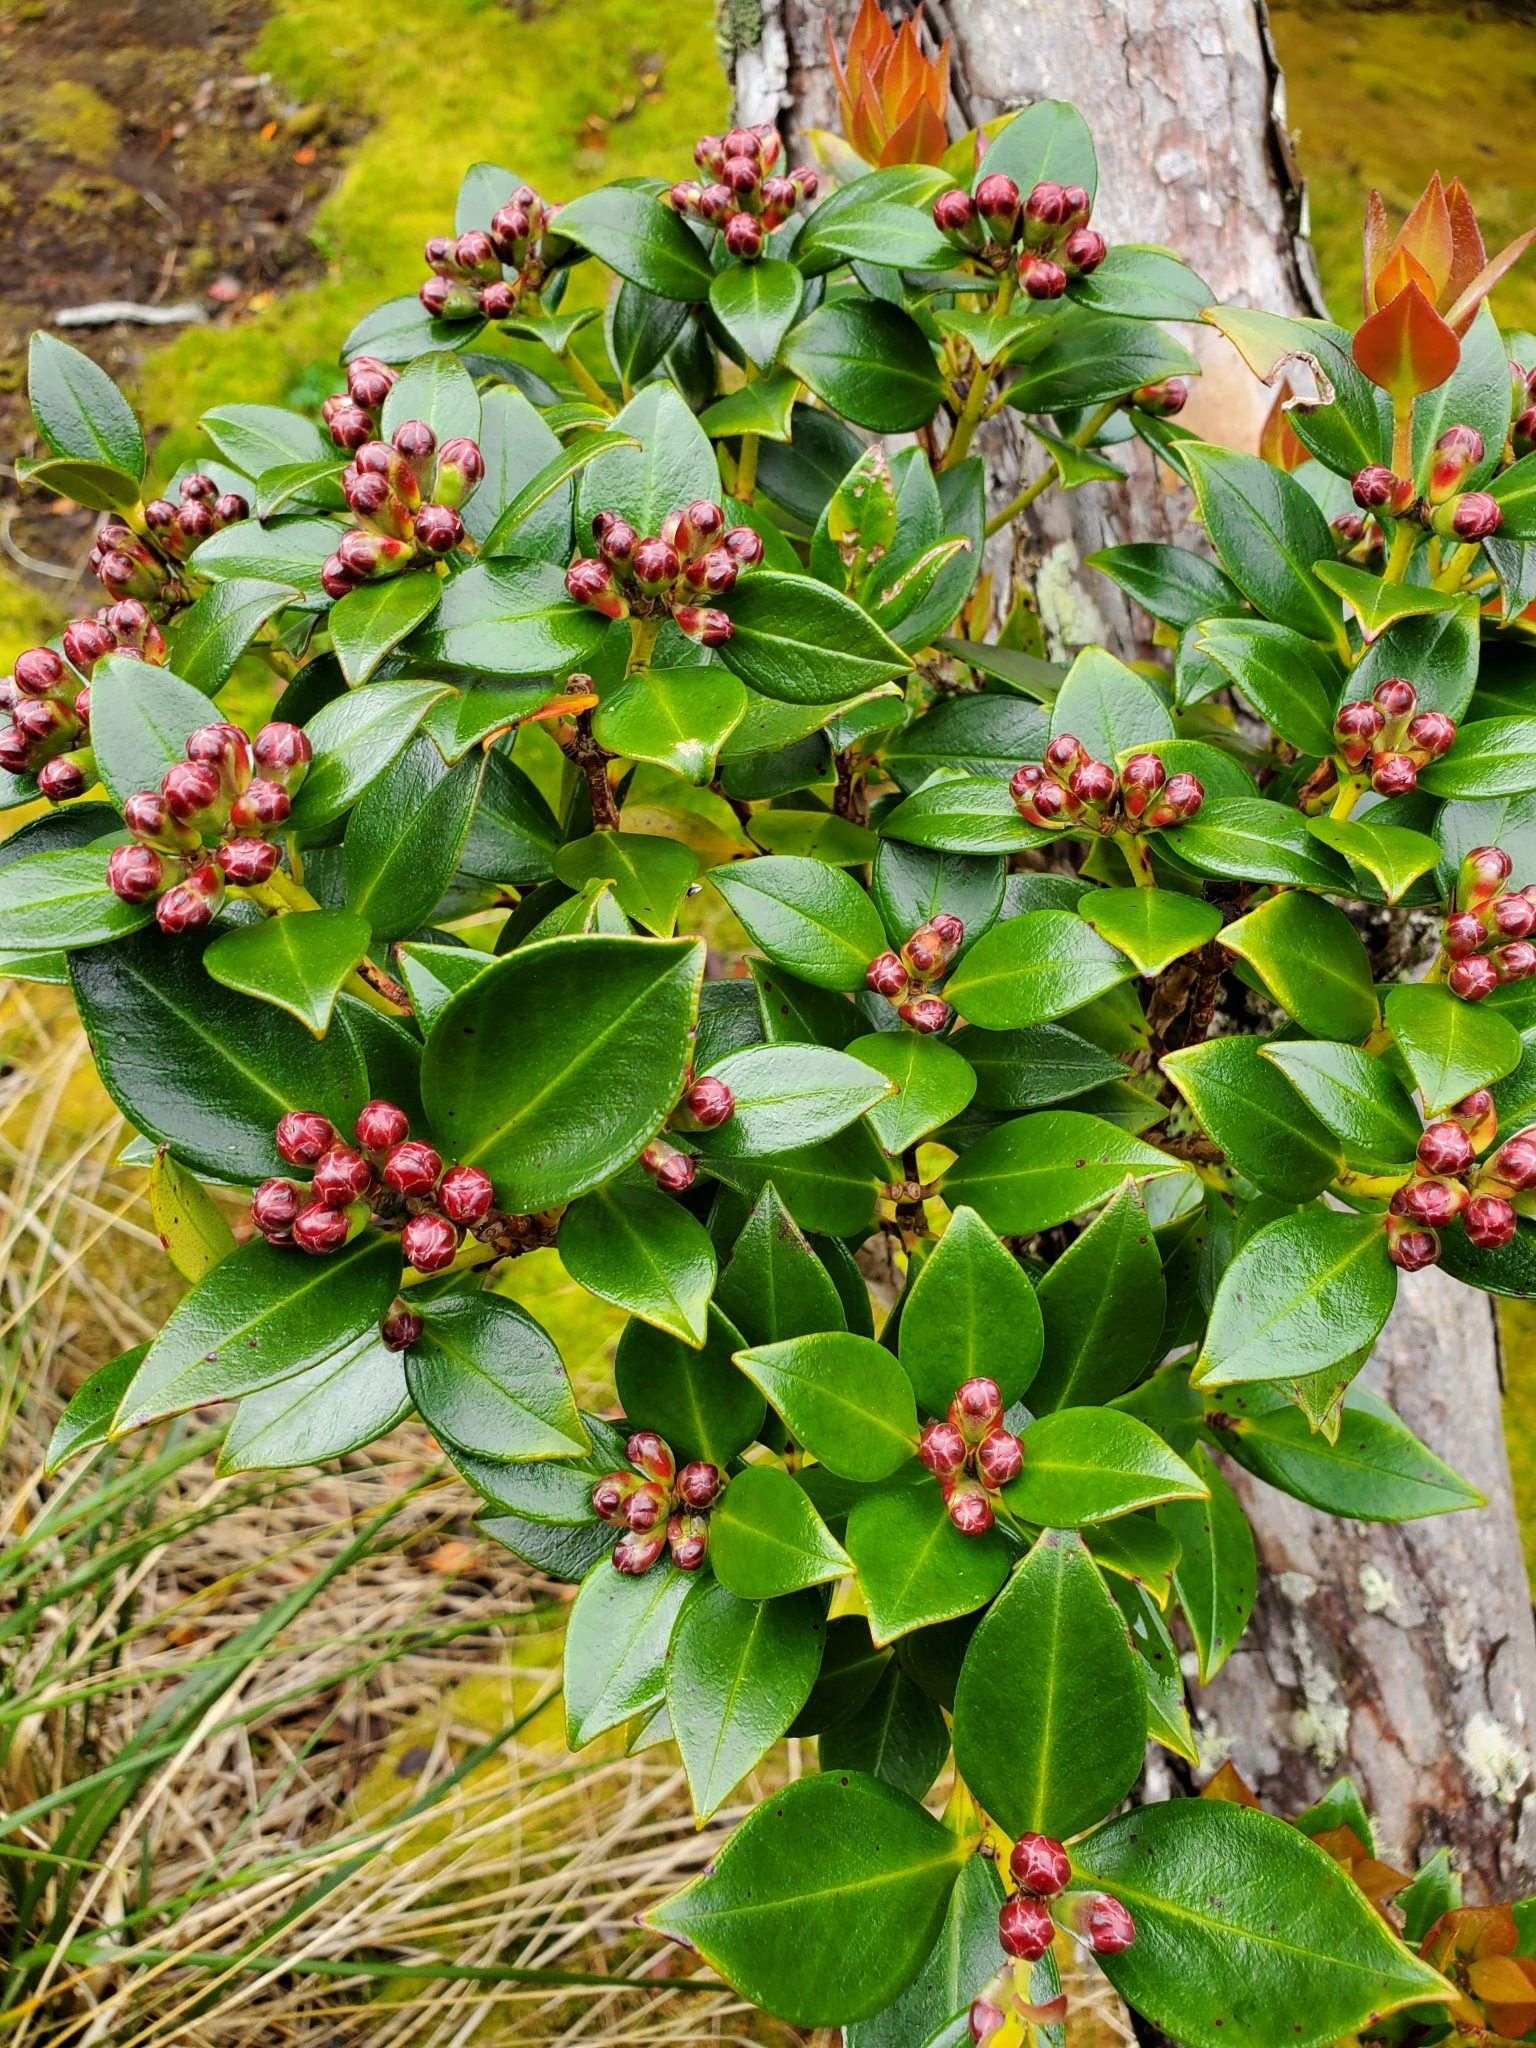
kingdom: Plantae
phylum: Tracheophyta
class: Magnoliopsida
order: Myrtales
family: Myrtaceae
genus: Metrosideros
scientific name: Metrosideros umbellata
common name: Southern rata
